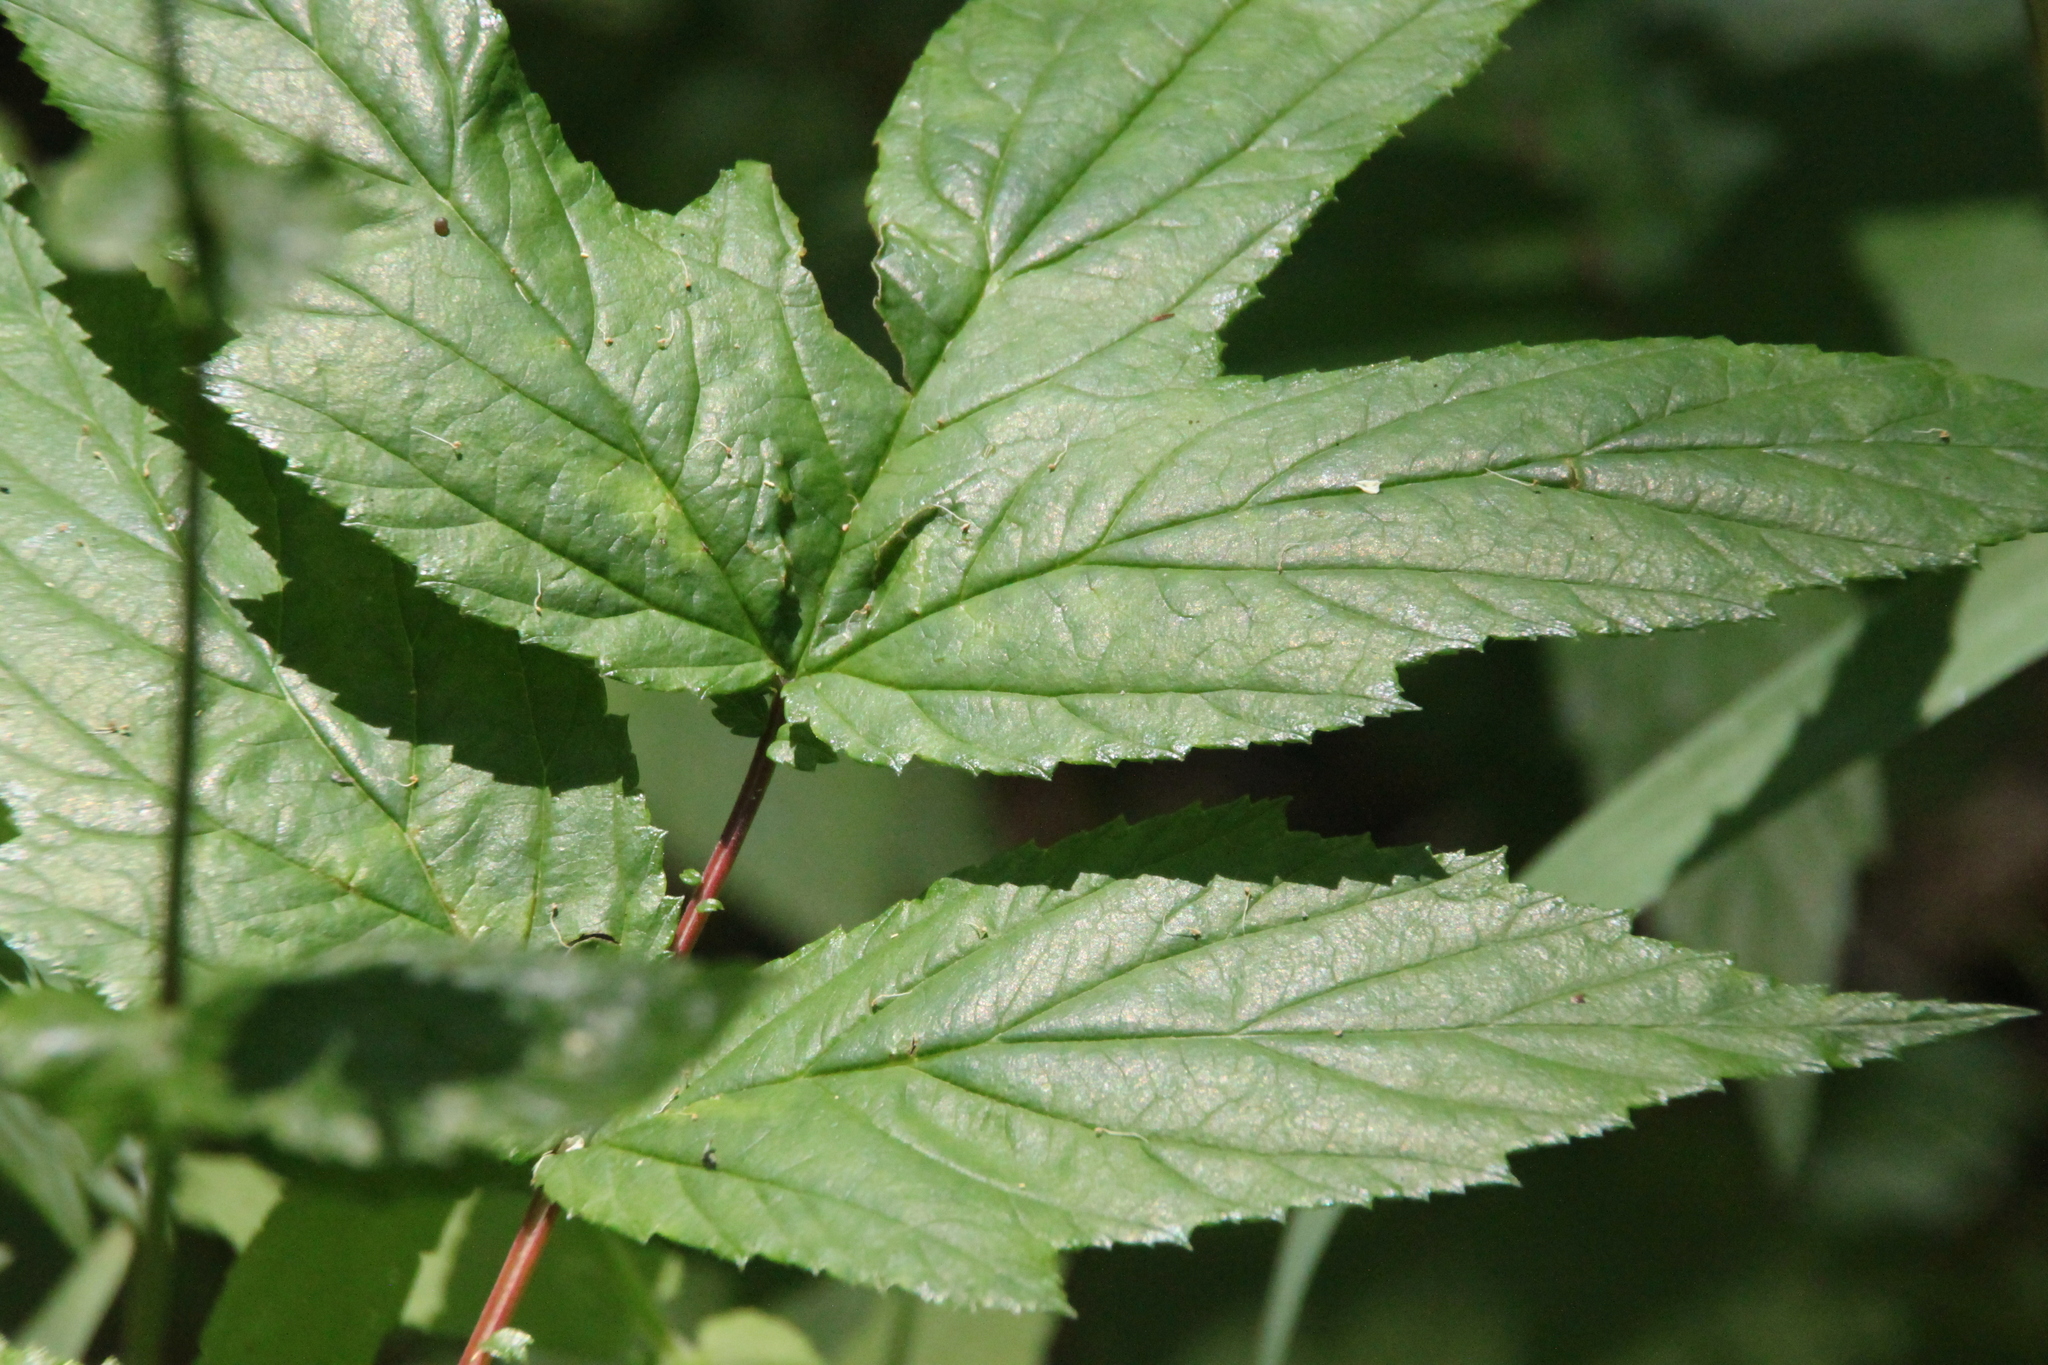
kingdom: Plantae
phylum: Tracheophyta
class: Magnoliopsida
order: Rosales
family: Rosaceae
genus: Filipendula
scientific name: Filipendula ulmaria
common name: Meadowsweet
